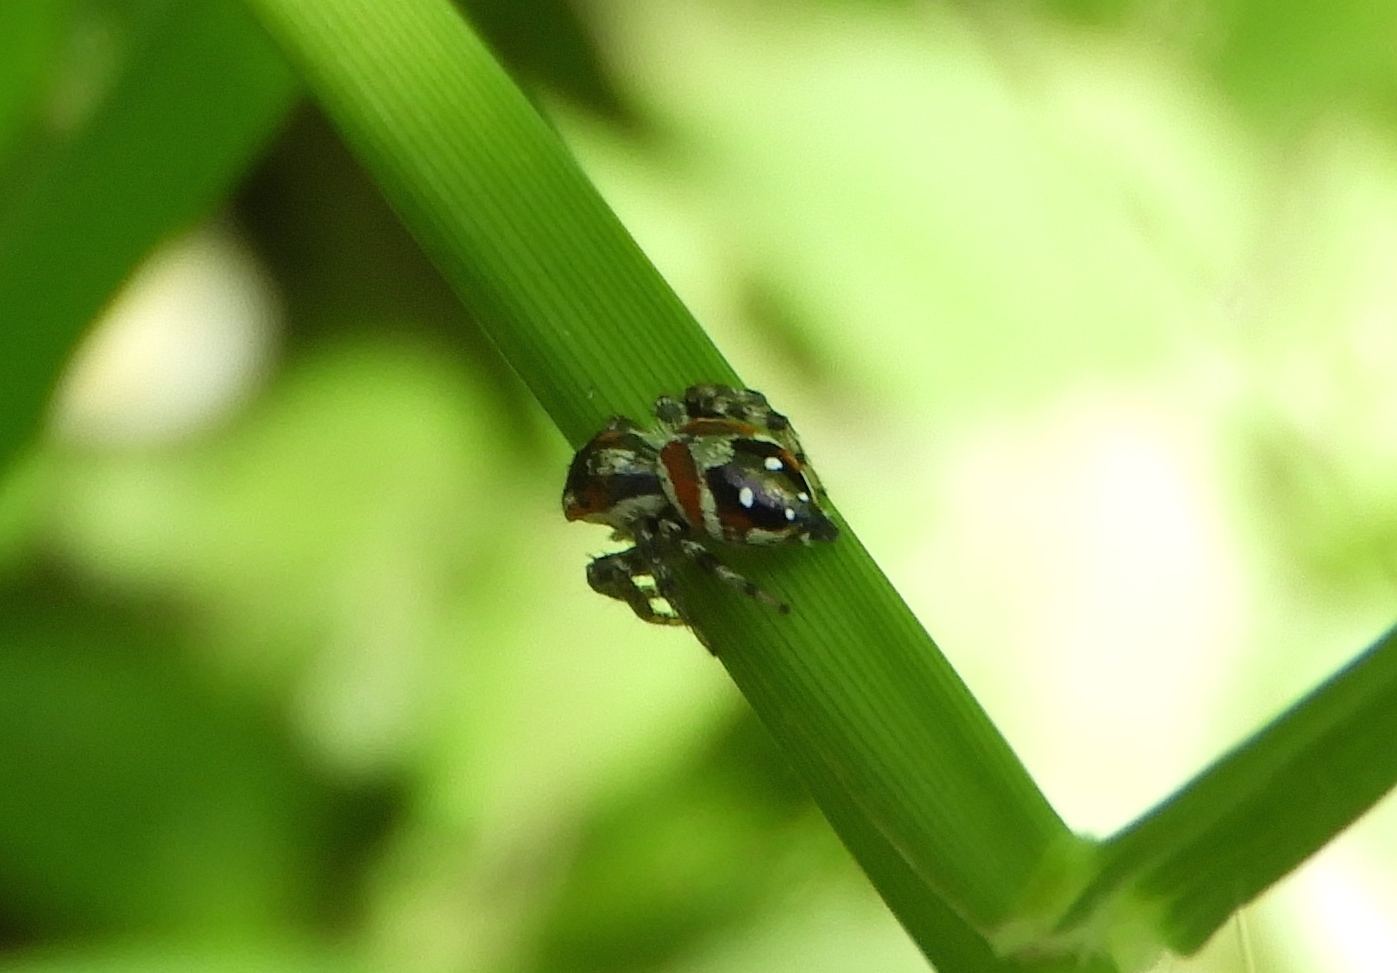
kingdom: Animalia
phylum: Arthropoda
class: Arachnida
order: Araneae
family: Salticidae
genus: Nycerella
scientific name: Nycerella delecta
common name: Jumping spiders
